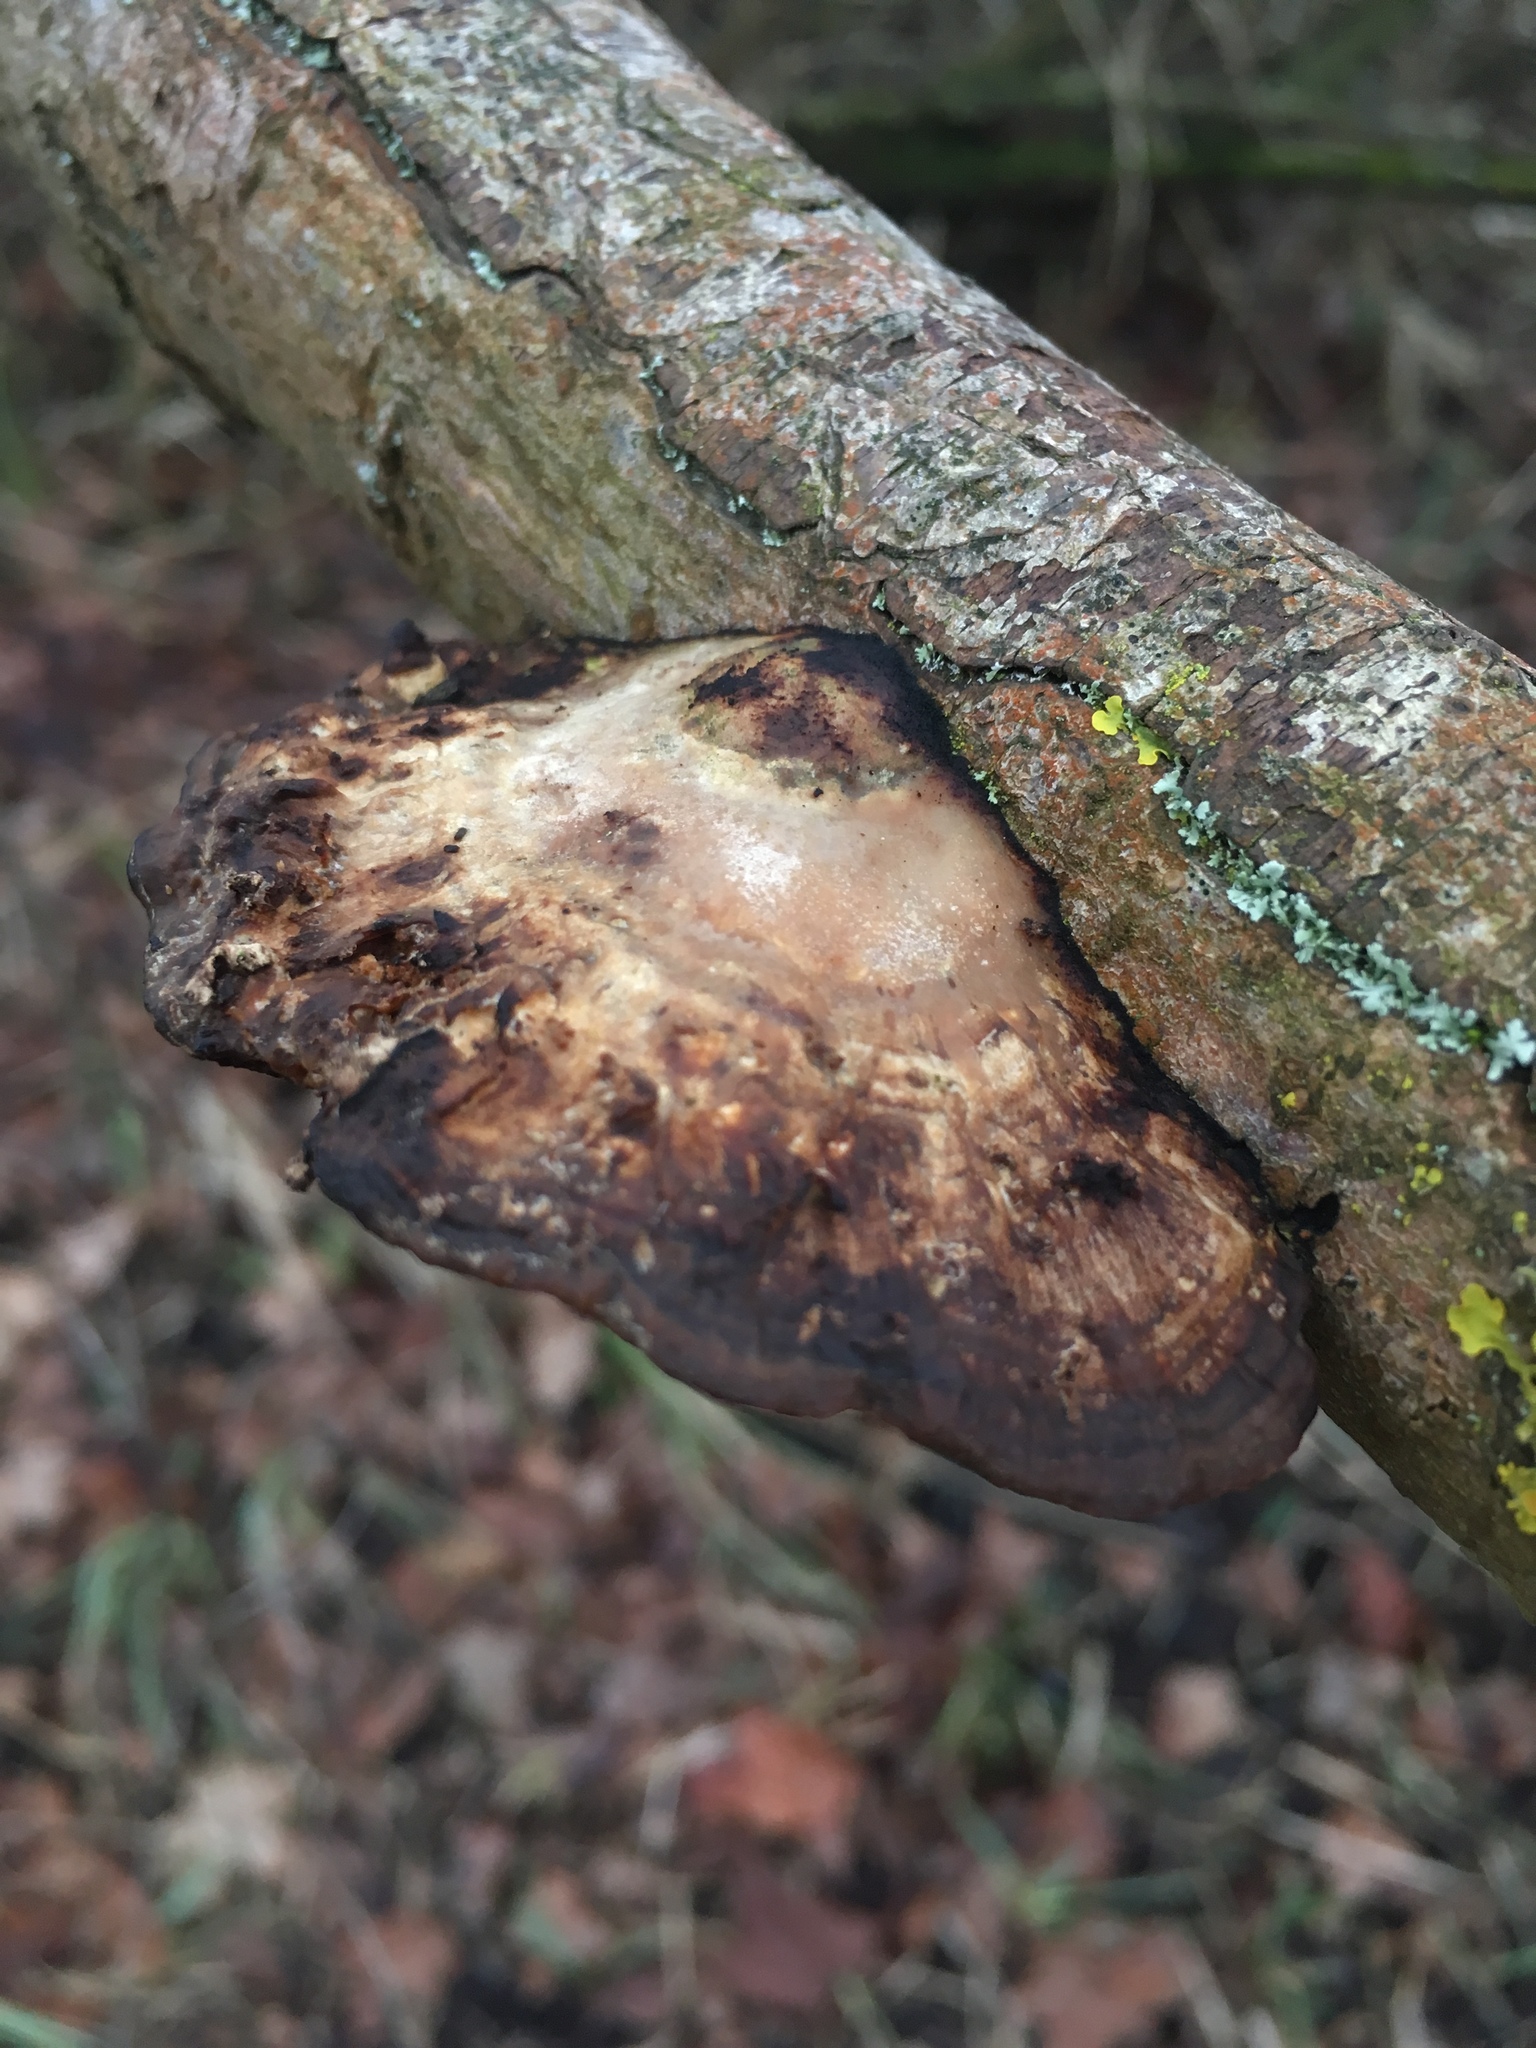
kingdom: Fungi
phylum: Basidiomycota
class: Agaricomycetes
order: Polyporales
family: Polyporaceae
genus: Daedaleopsis
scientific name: Daedaleopsis confragosa
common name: Blushing bracket
